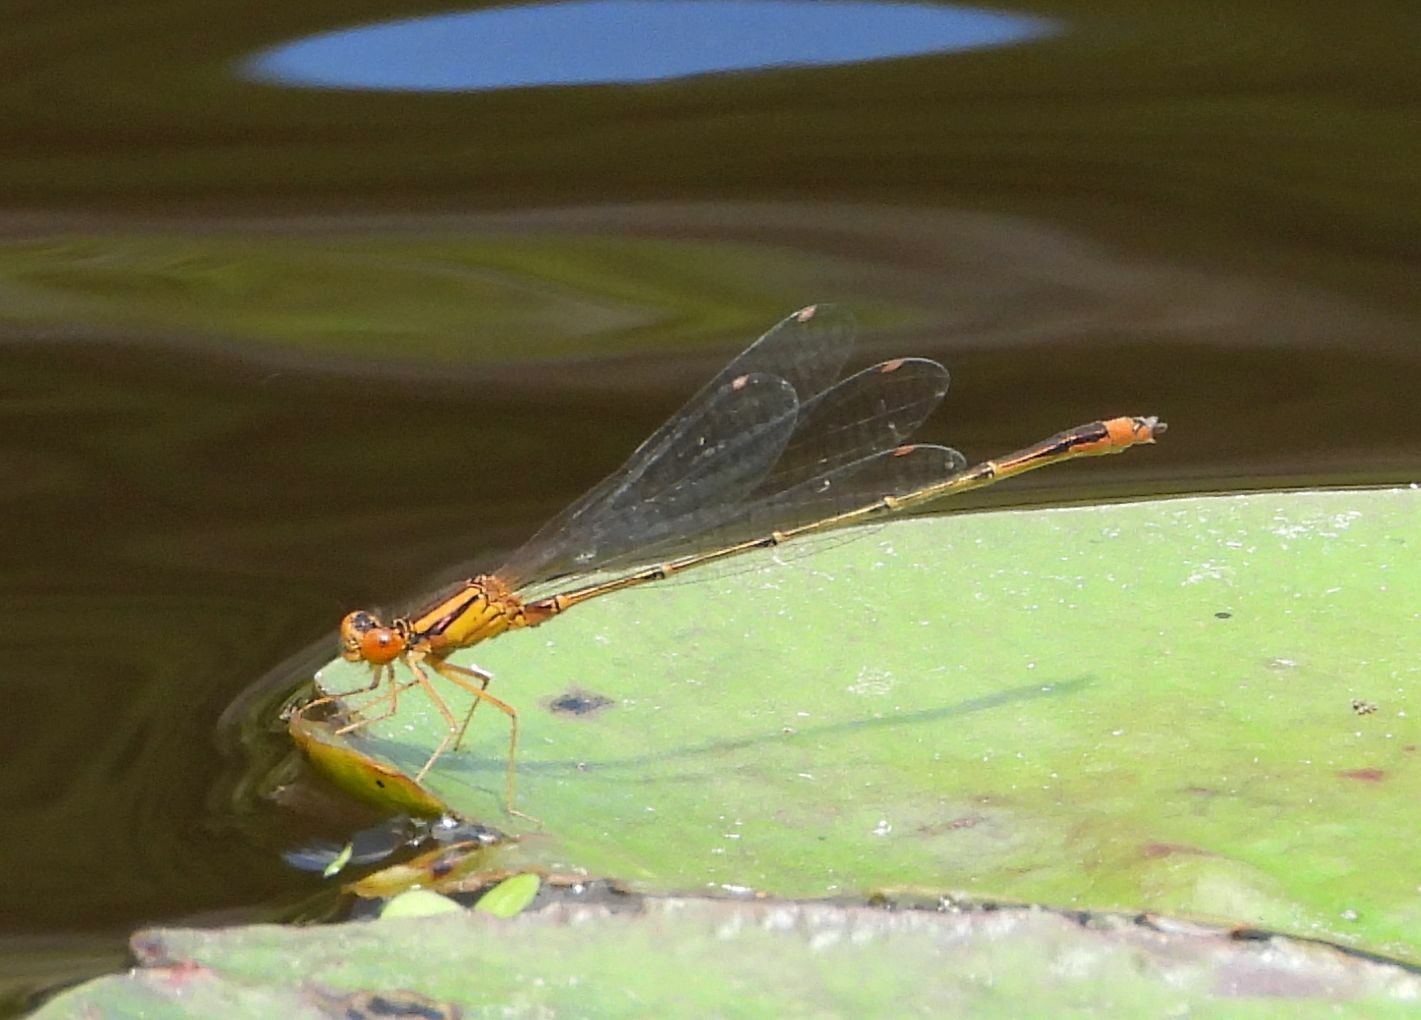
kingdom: Animalia
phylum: Arthropoda
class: Insecta
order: Odonata
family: Coenagrionidae
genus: Enallagma
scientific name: Enallagma signatum
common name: Orange bluet
